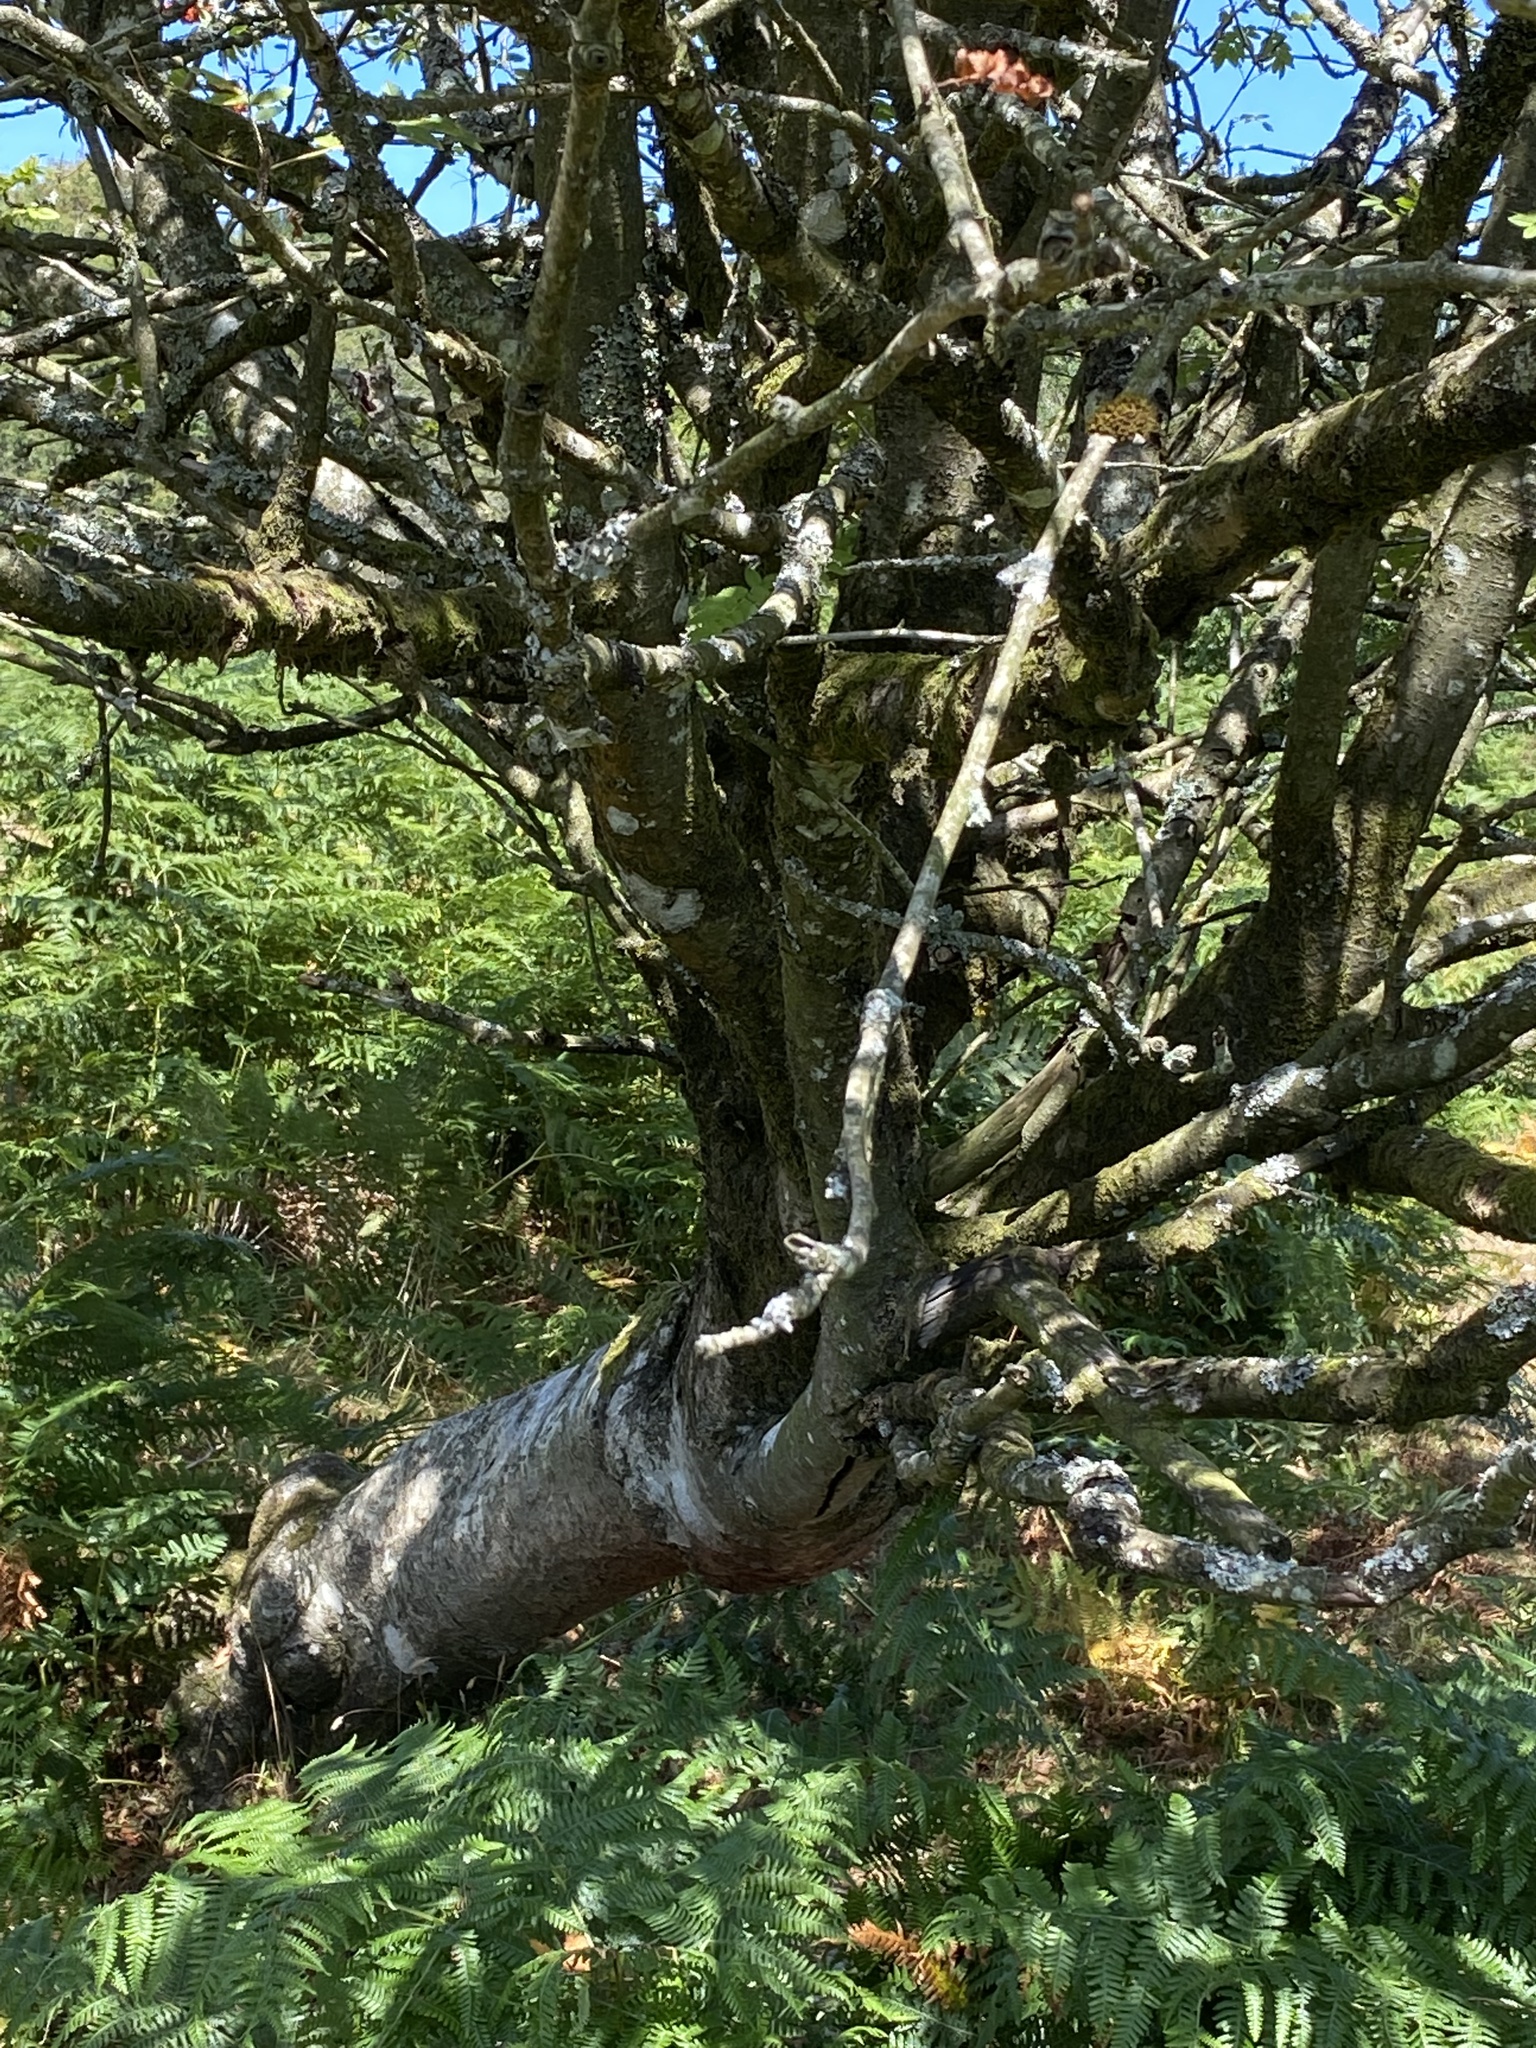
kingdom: Plantae
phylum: Tracheophyta
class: Magnoliopsida
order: Rosales
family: Rosaceae
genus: Sorbus
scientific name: Sorbus aucuparia
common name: Rowan
